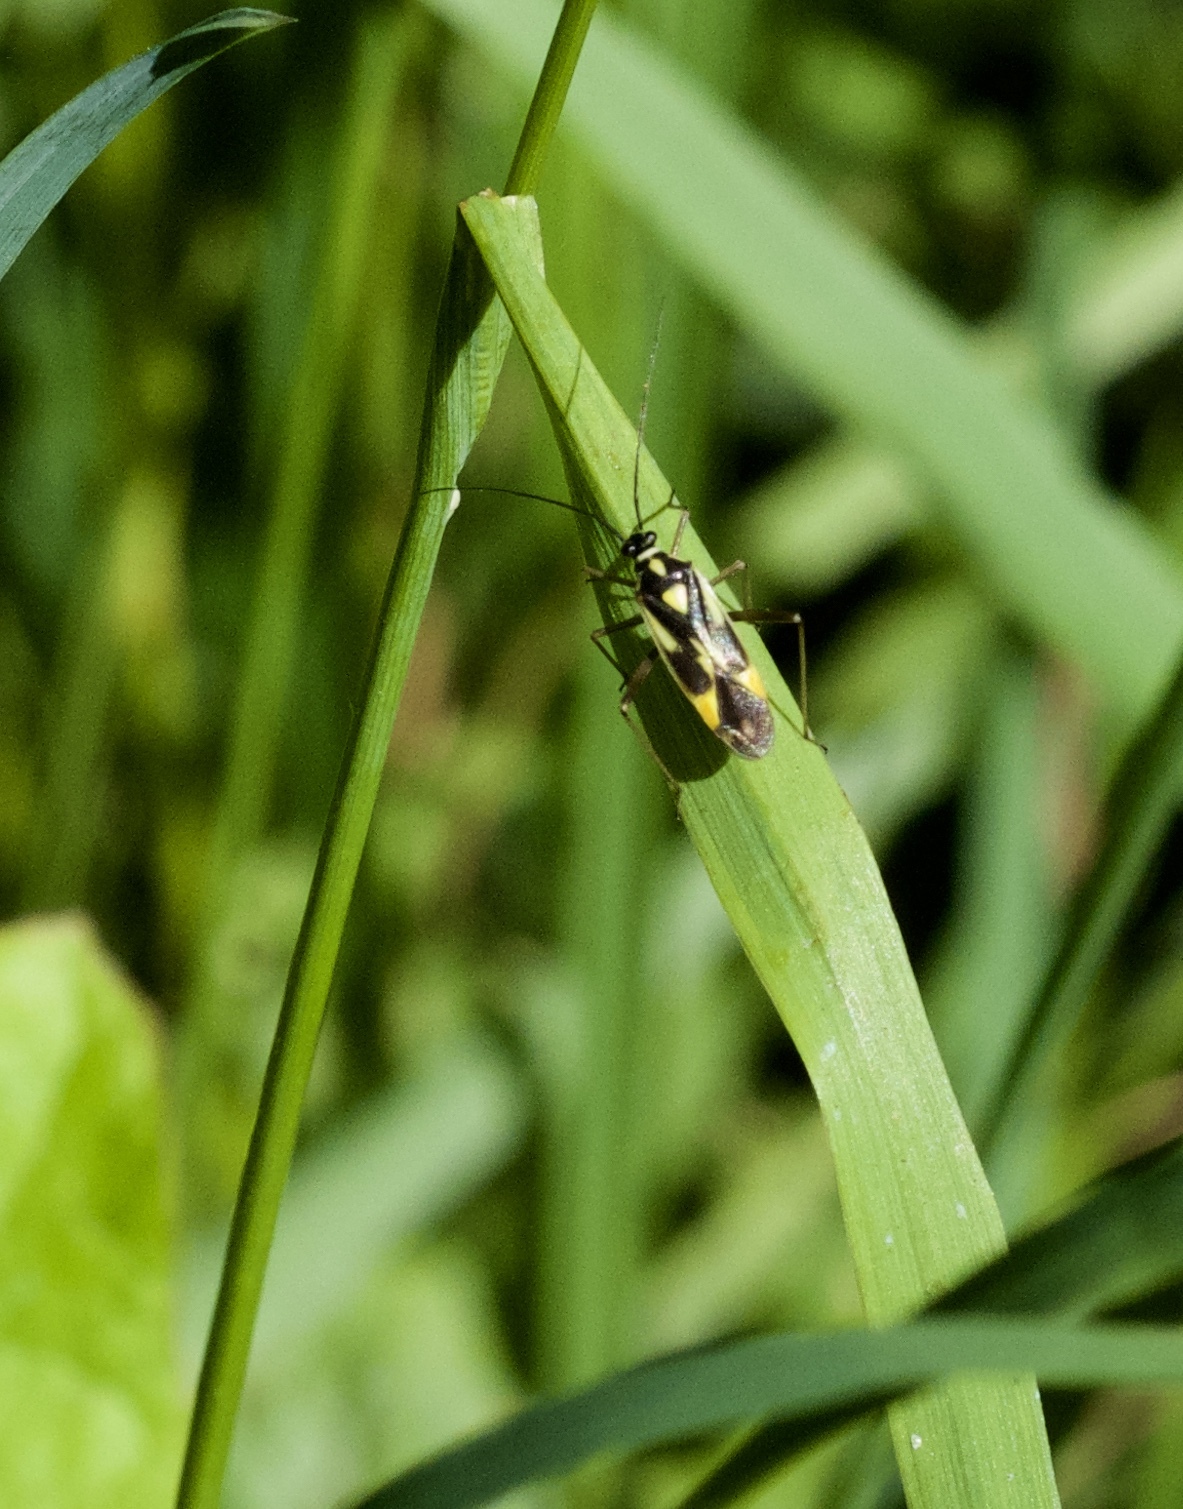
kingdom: Animalia
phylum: Arthropoda
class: Insecta
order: Hemiptera
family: Miridae
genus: Grypocoris
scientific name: Grypocoris stysi
